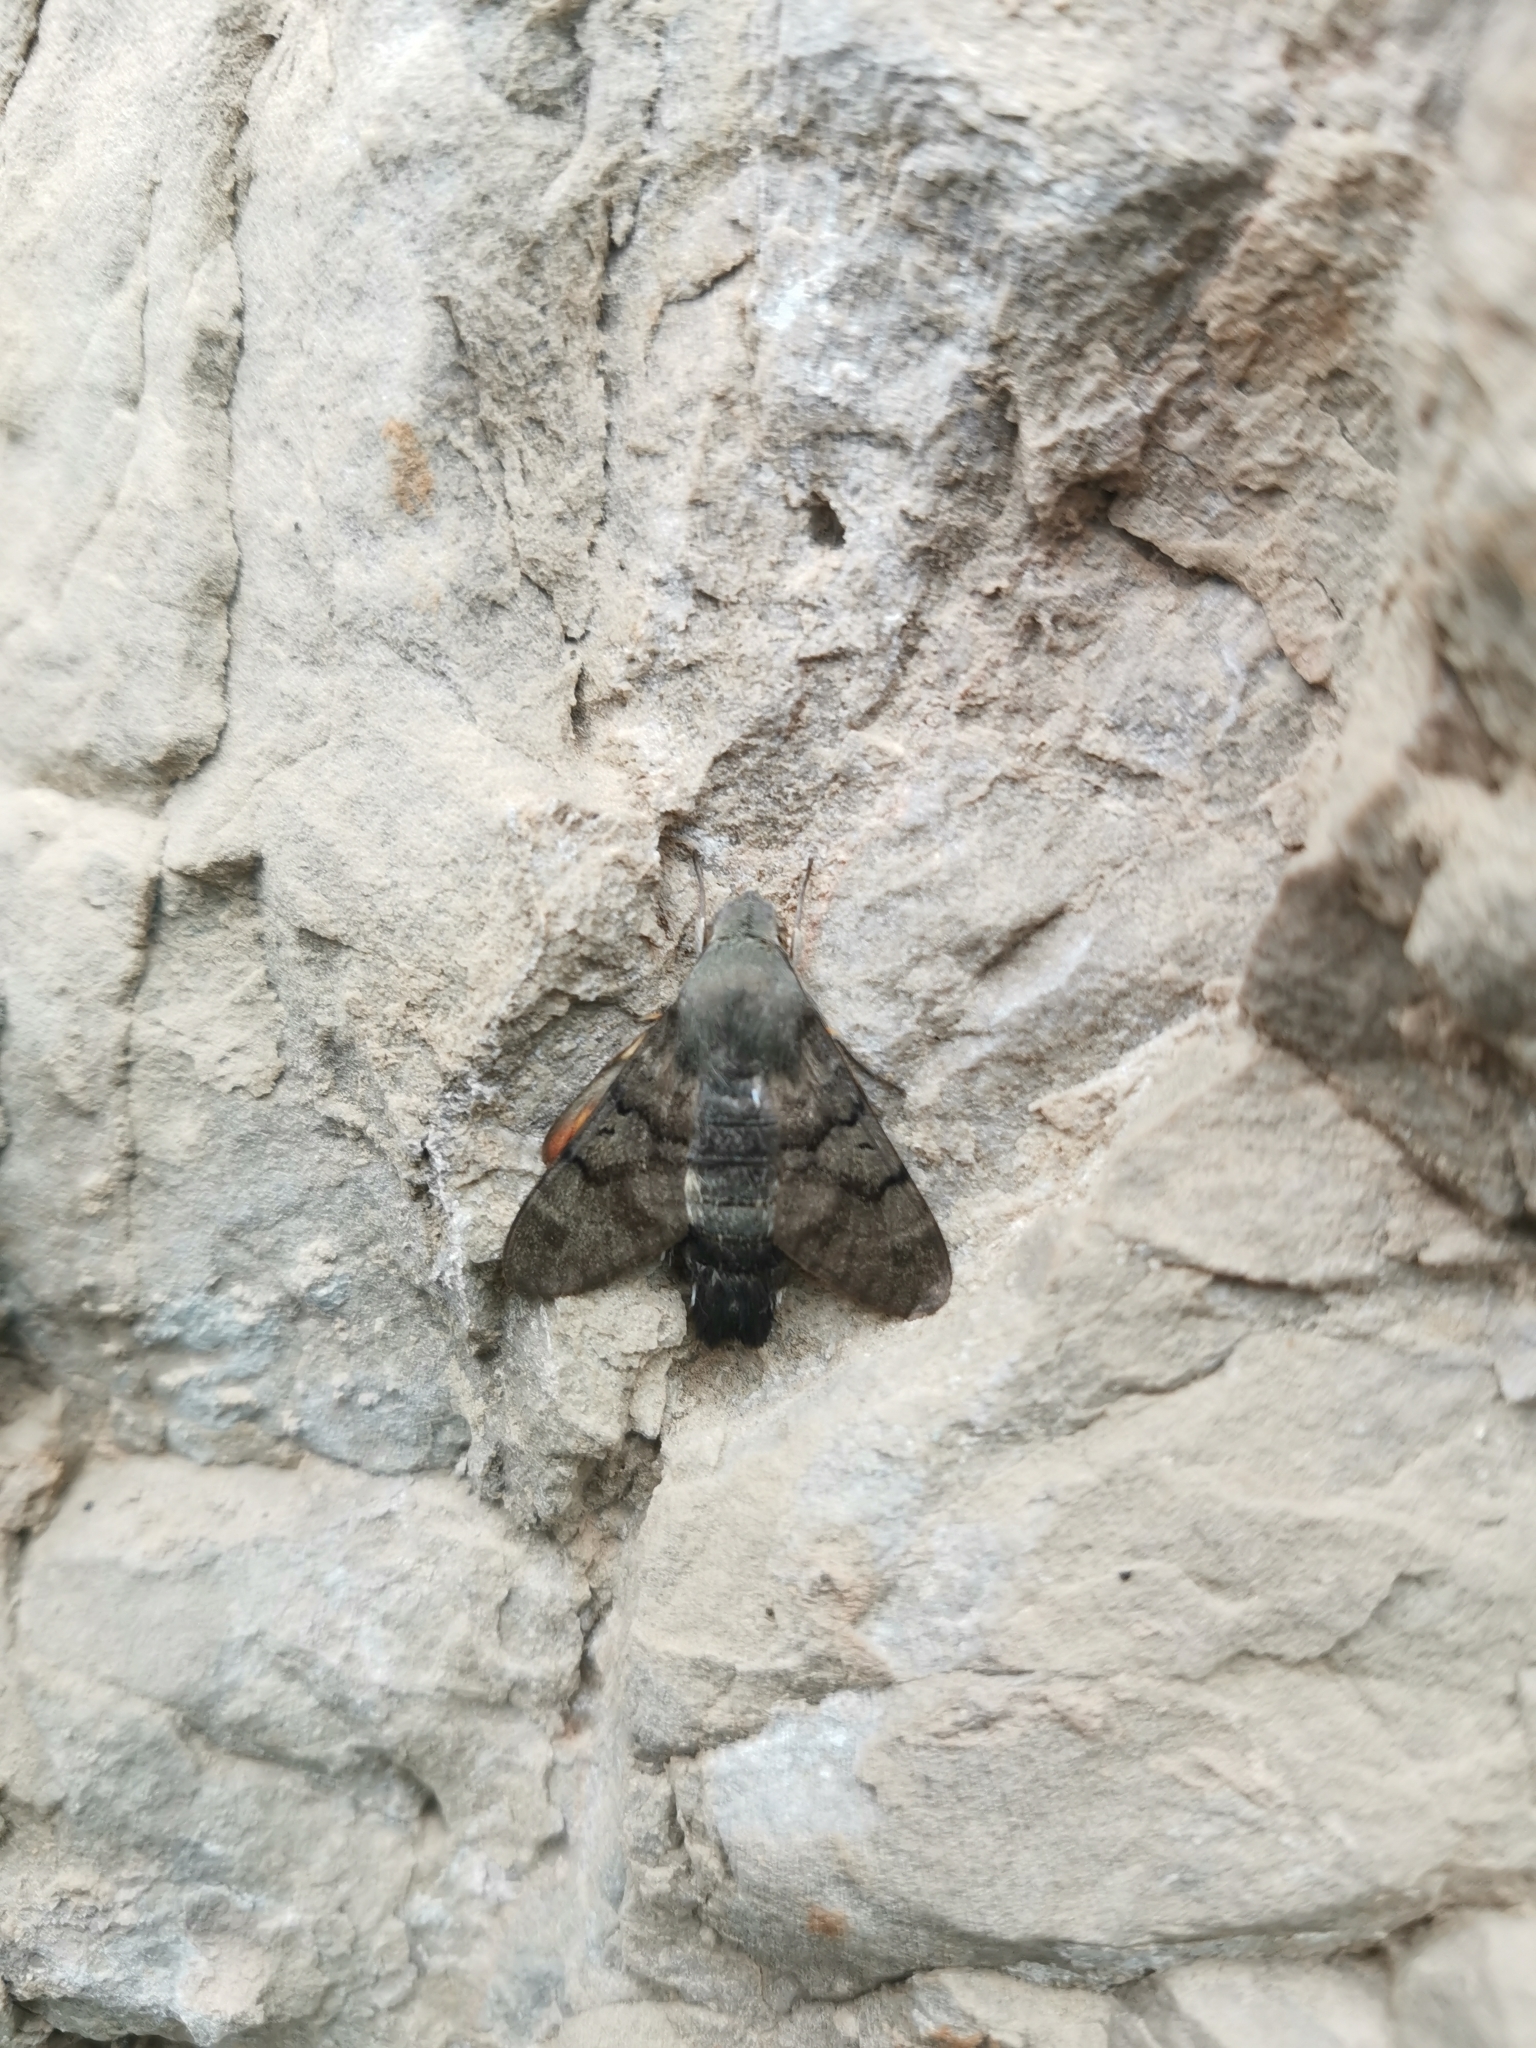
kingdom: Animalia
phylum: Arthropoda
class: Insecta
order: Lepidoptera
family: Sphingidae
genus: Macroglossum
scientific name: Macroglossum stellatarum
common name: Humming-bird hawk-moth
